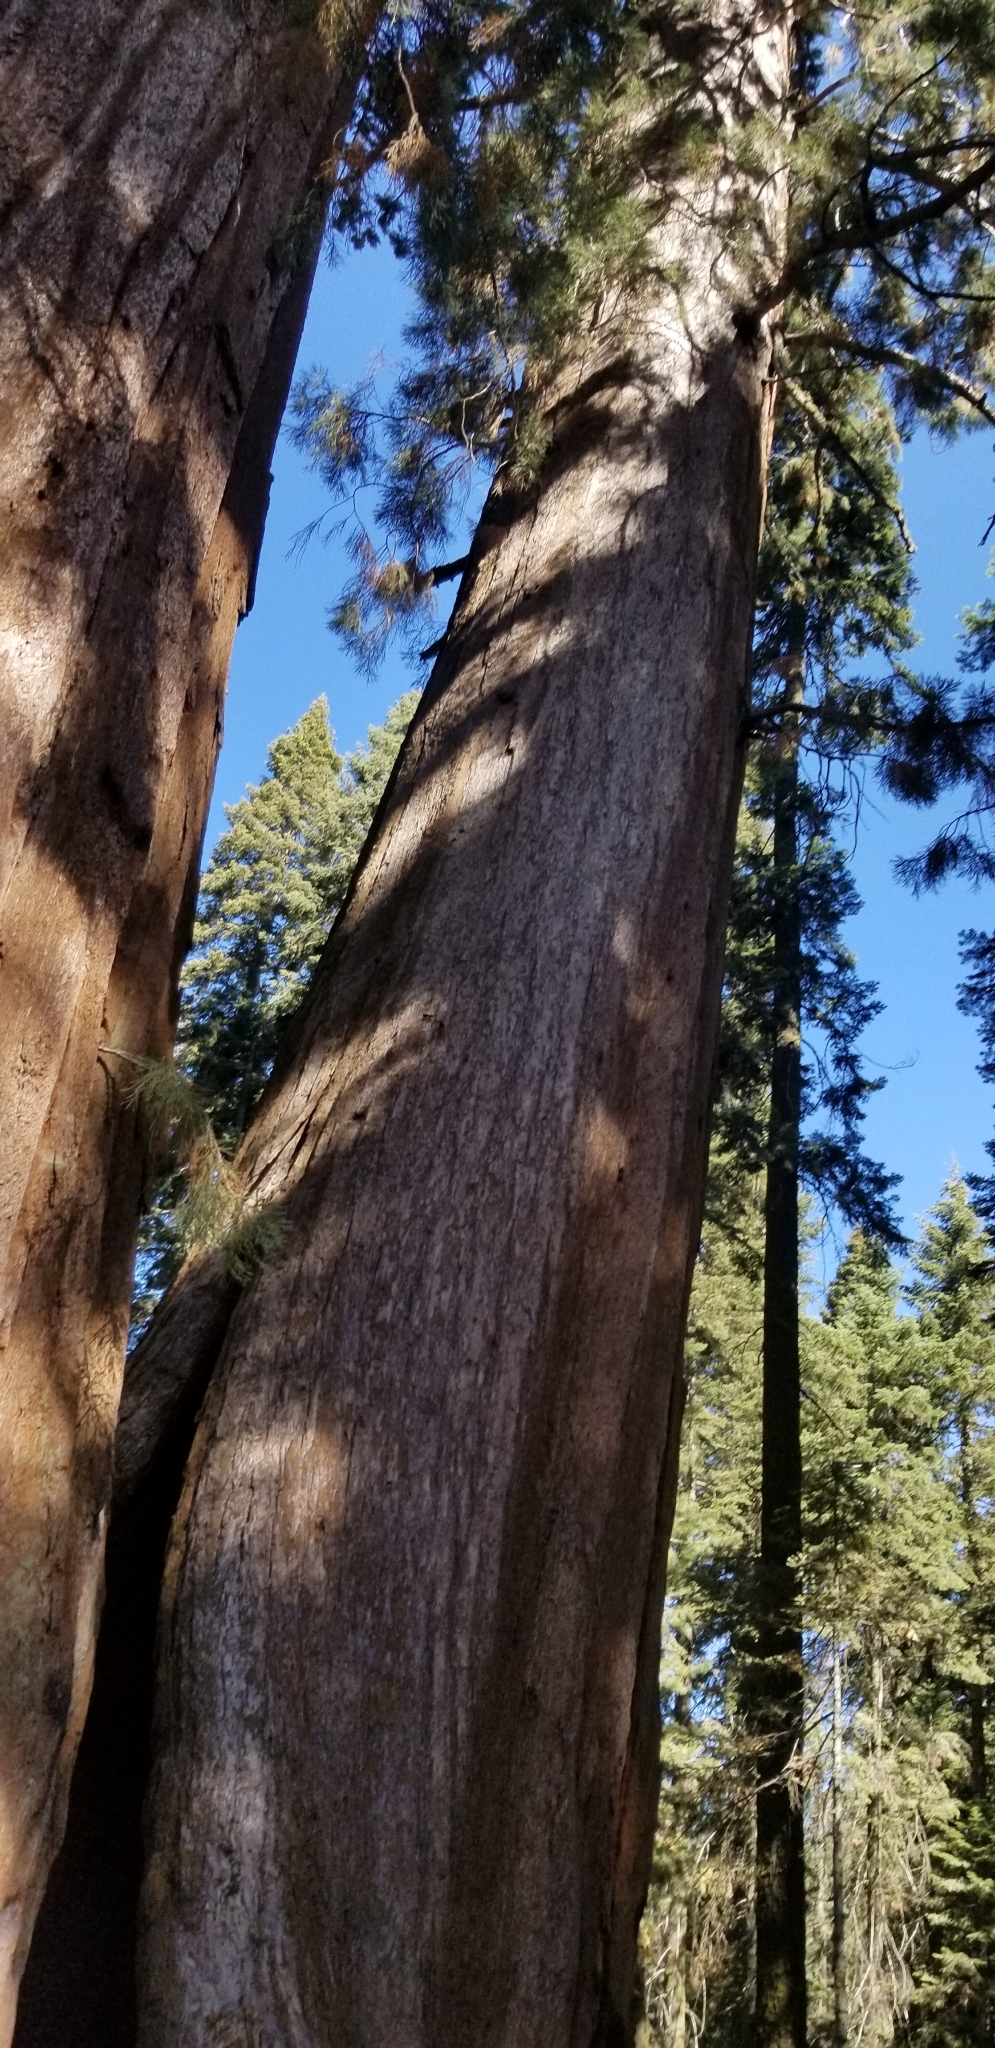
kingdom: Plantae
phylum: Tracheophyta
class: Pinopsida
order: Pinales
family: Cupressaceae
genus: Sequoiadendron
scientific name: Sequoiadendron giganteum
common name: Wellingtonia
